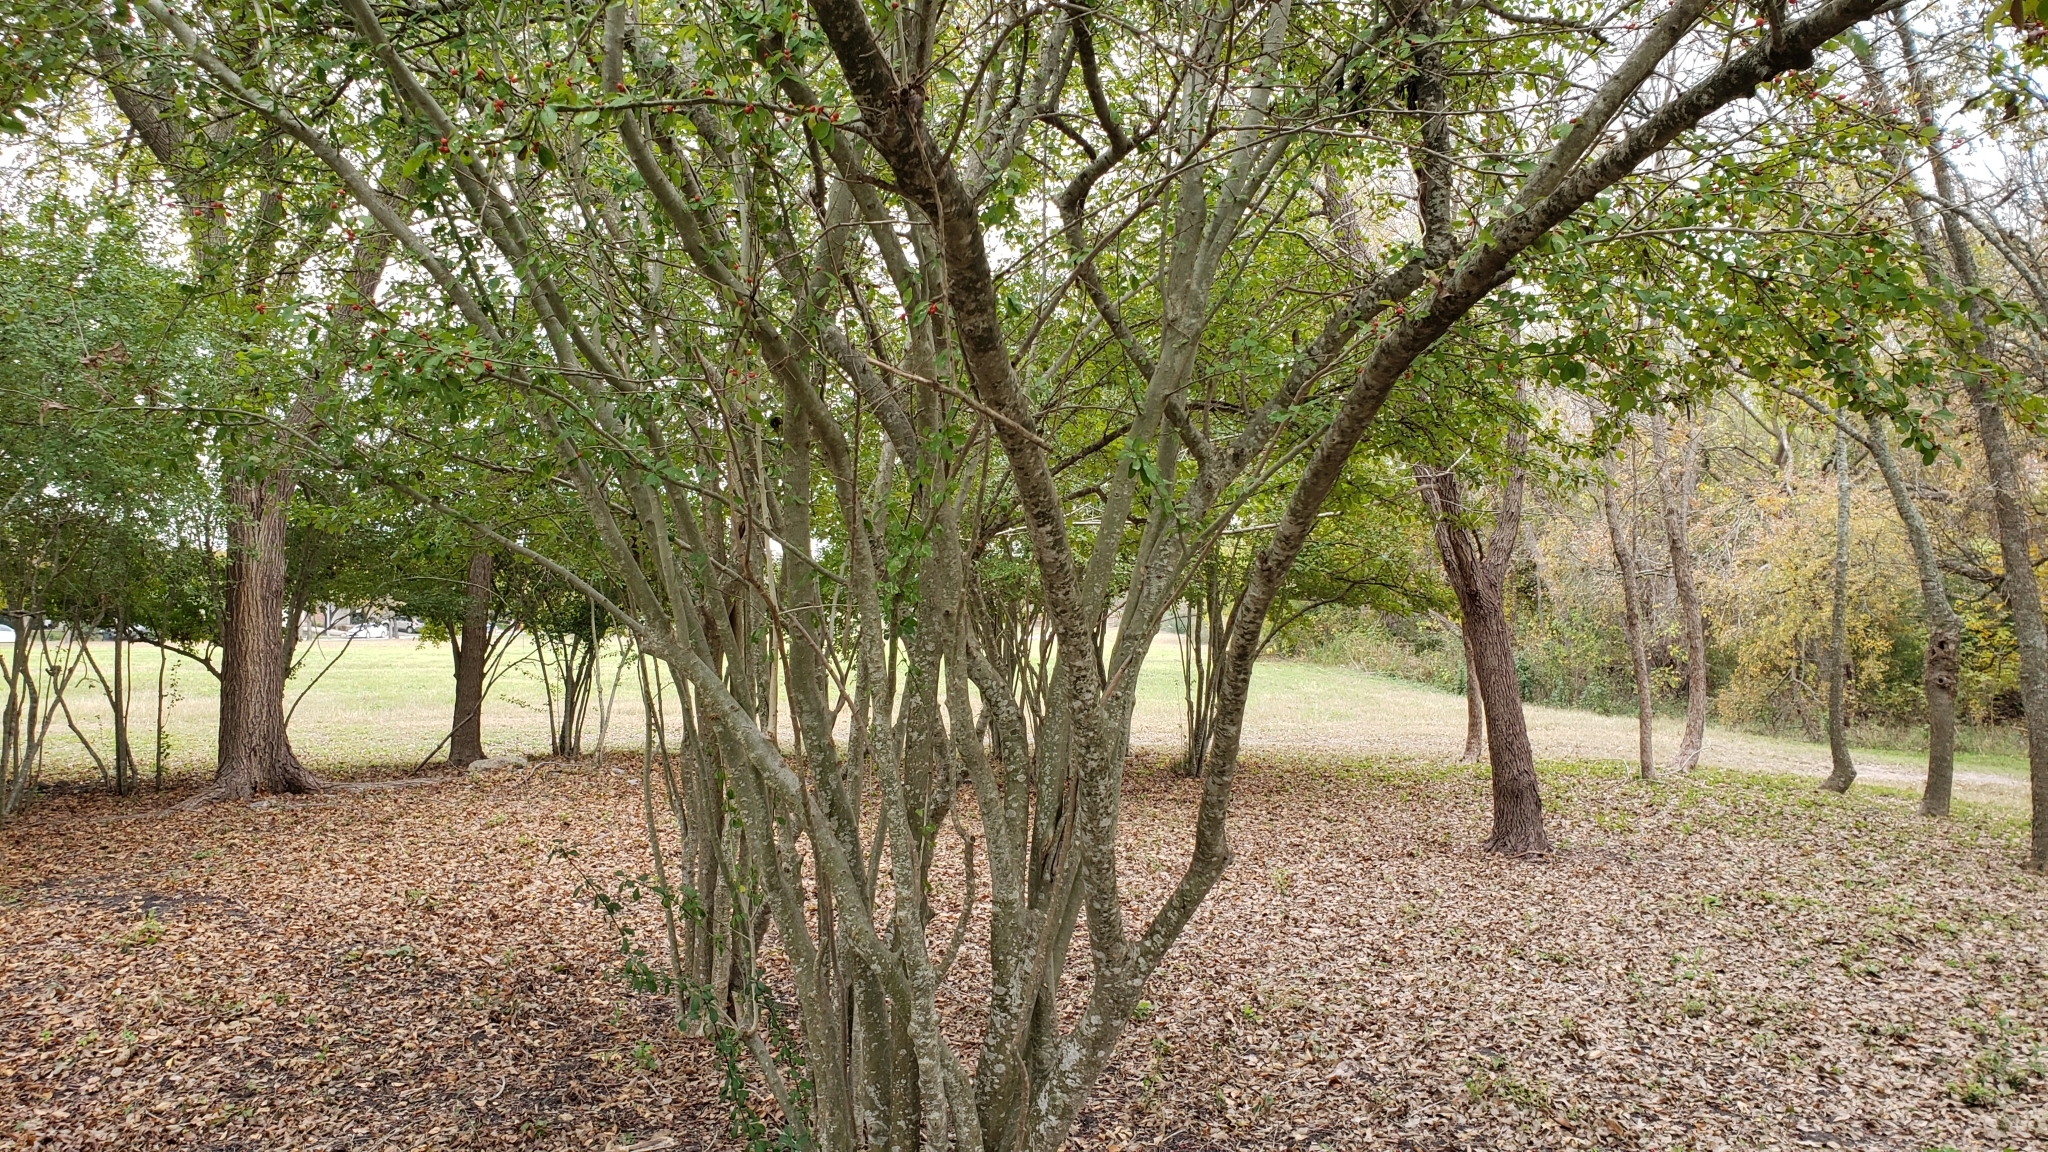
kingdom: Plantae
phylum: Tracheophyta
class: Magnoliopsida
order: Aquifoliales
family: Aquifoliaceae
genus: Ilex
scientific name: Ilex decidua
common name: Possum-haw
